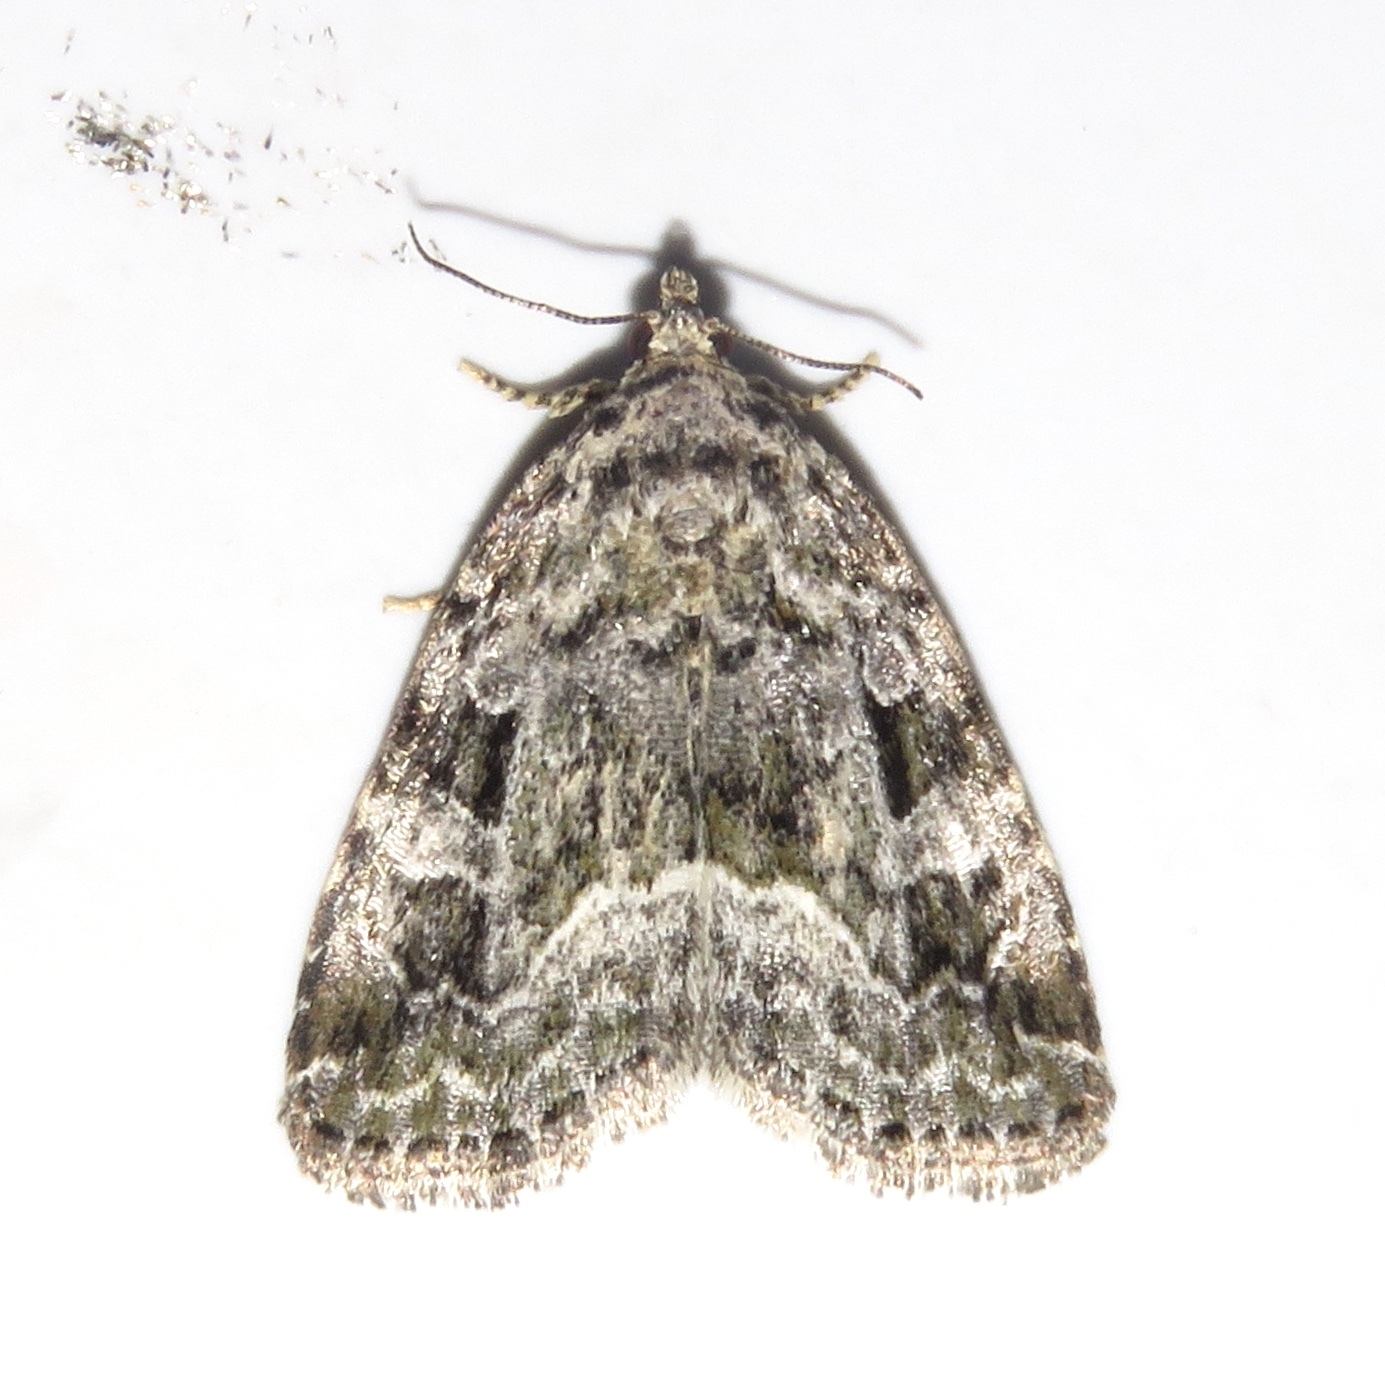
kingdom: Animalia
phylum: Arthropoda
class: Insecta
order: Lepidoptera
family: Noctuidae
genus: Protodeltote
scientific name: Protodeltote muscosula
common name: Large mossy glyph
